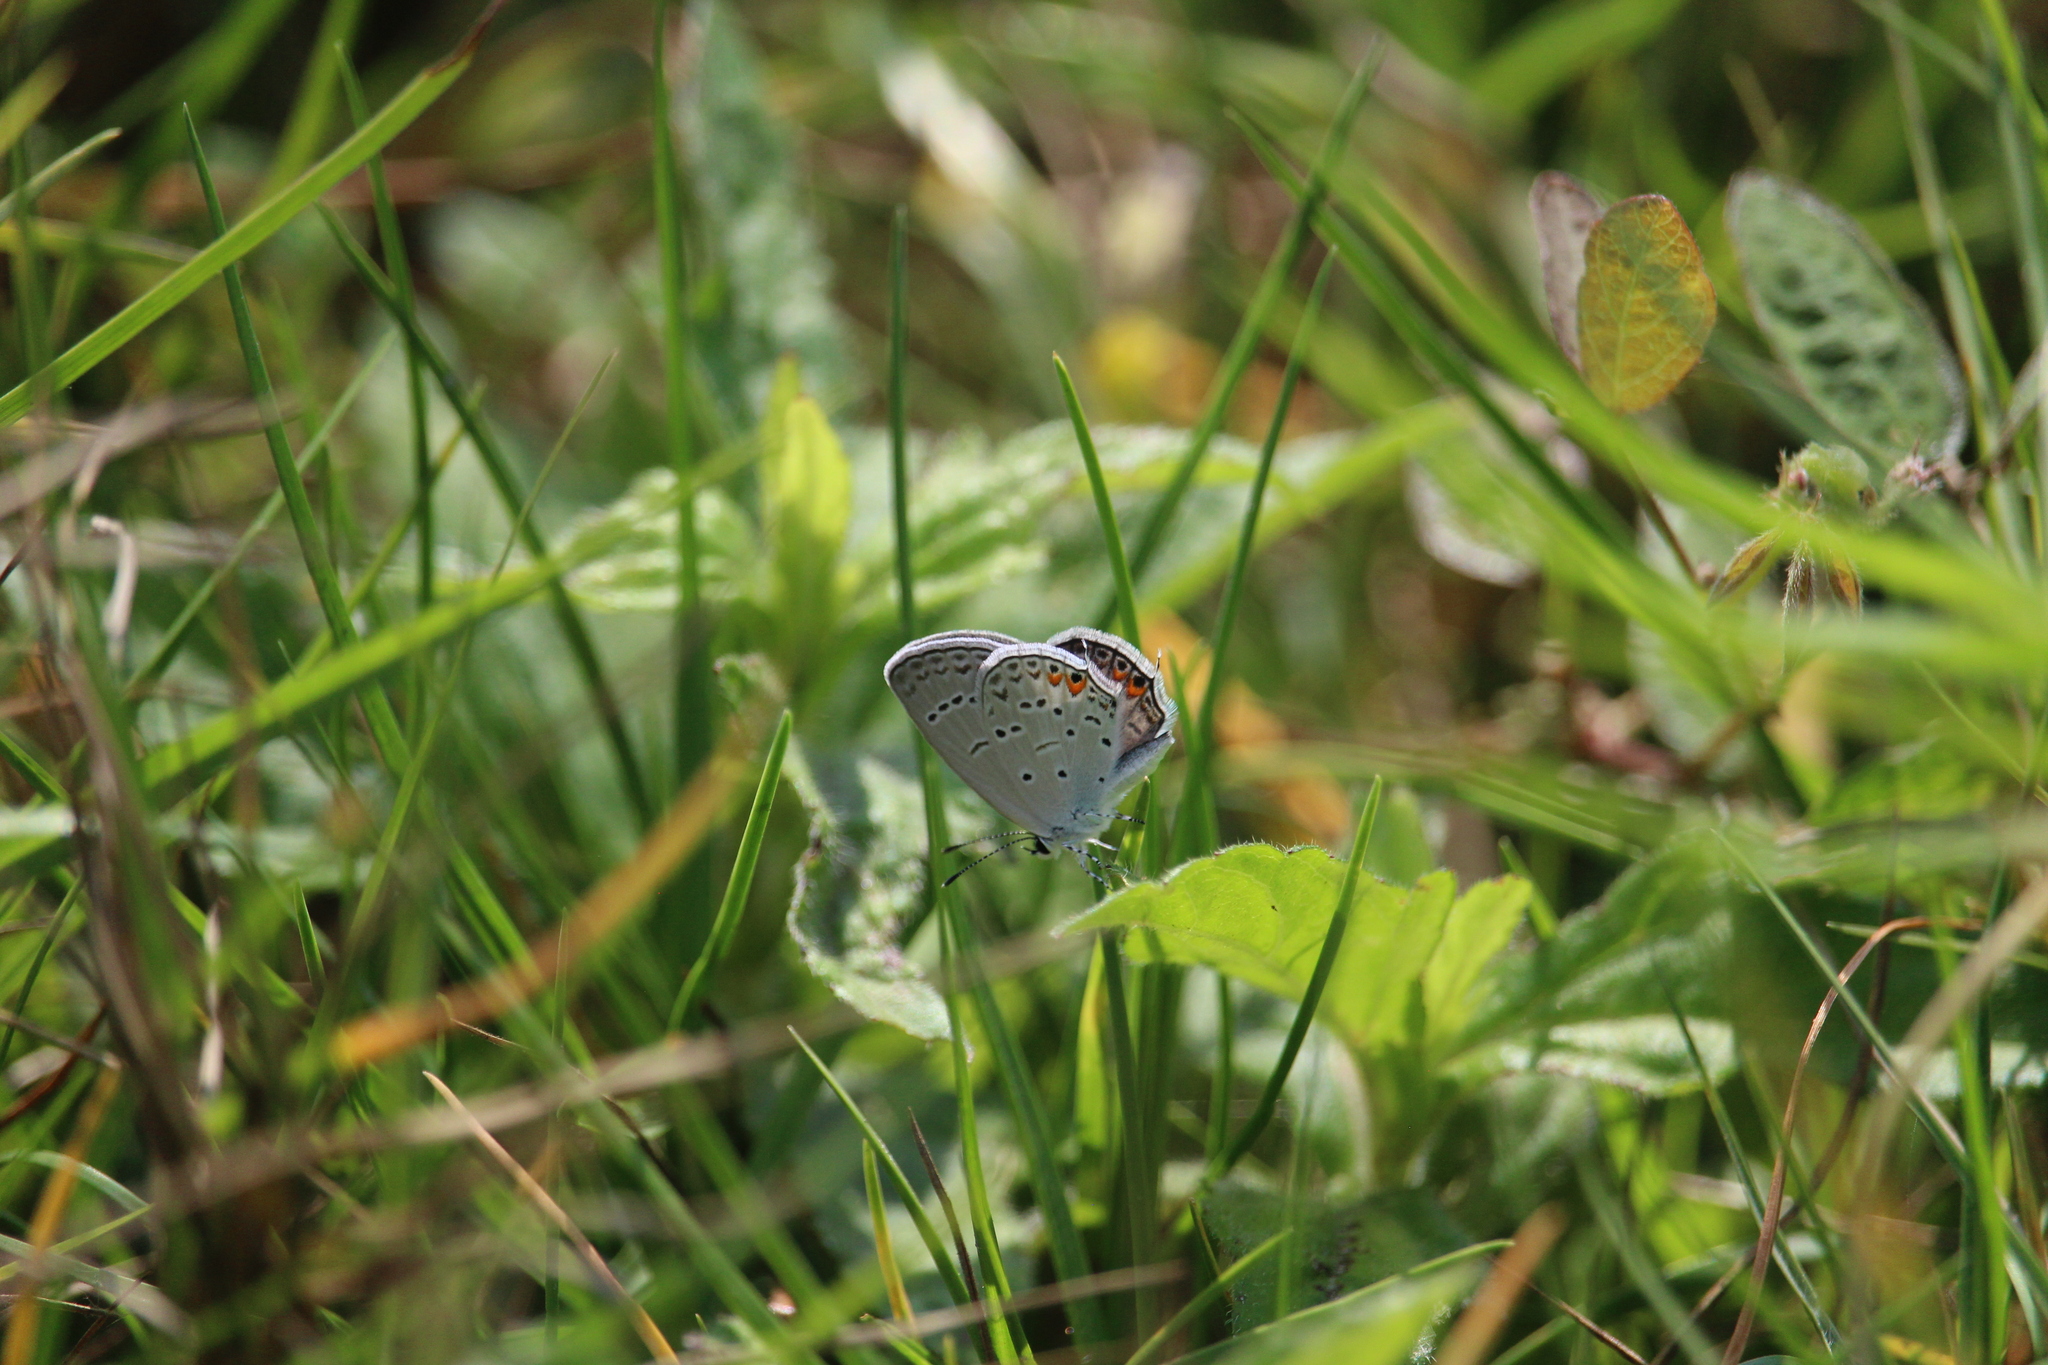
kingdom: Animalia
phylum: Arthropoda
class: Insecta
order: Lepidoptera
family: Lycaenidae
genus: Elkalyce
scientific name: Elkalyce comyntas
